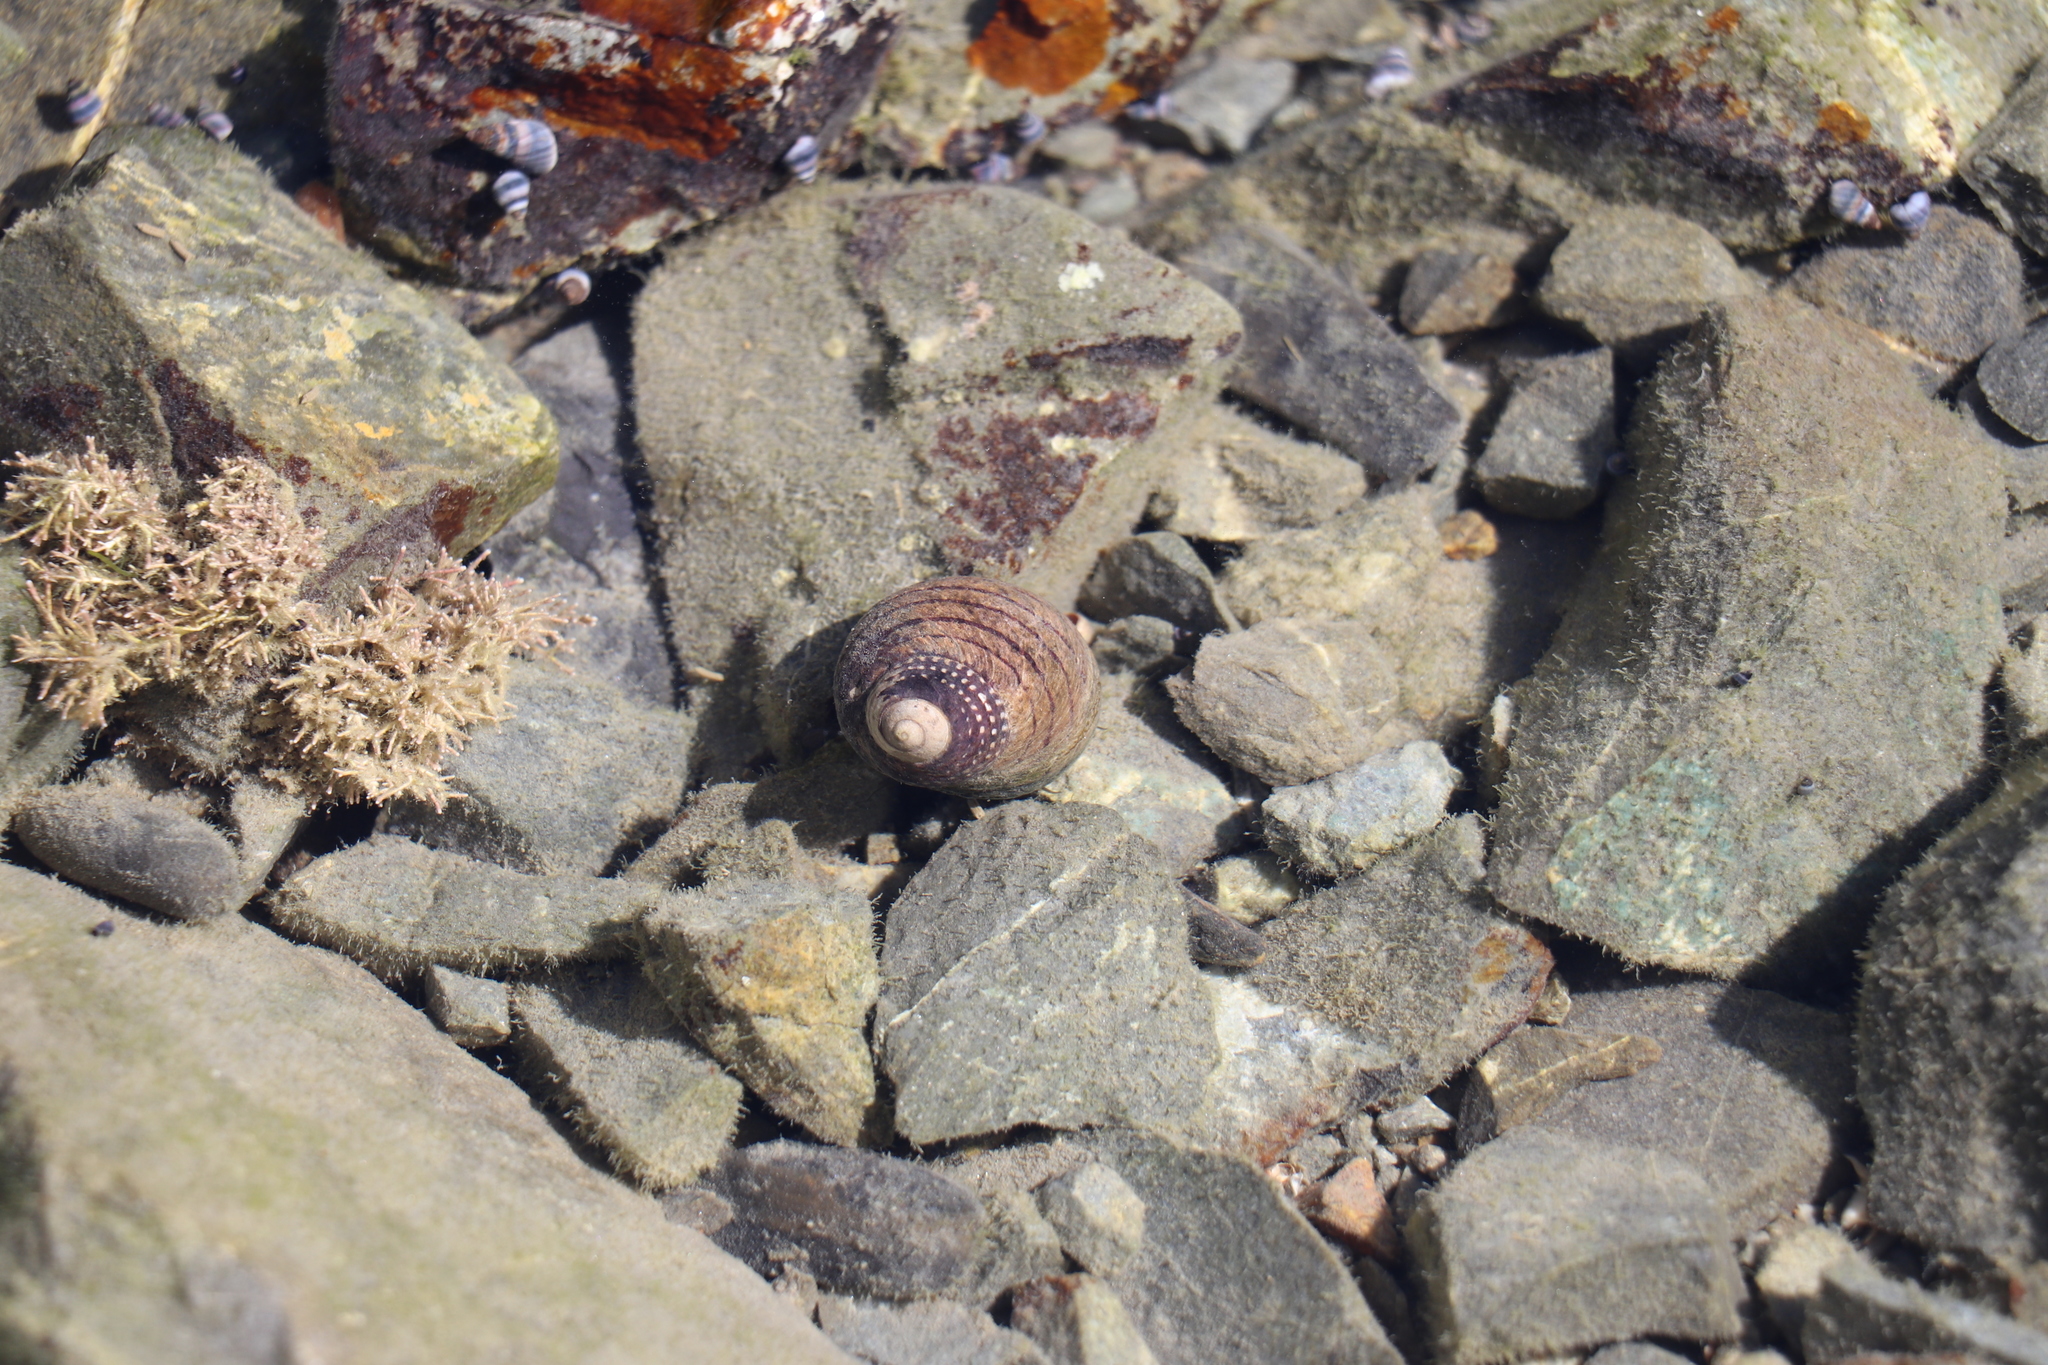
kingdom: Animalia
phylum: Mollusca
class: Gastropoda
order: Trochida
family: Trochidae
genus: Diloma
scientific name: Diloma aethiops
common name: Scorched monodont
